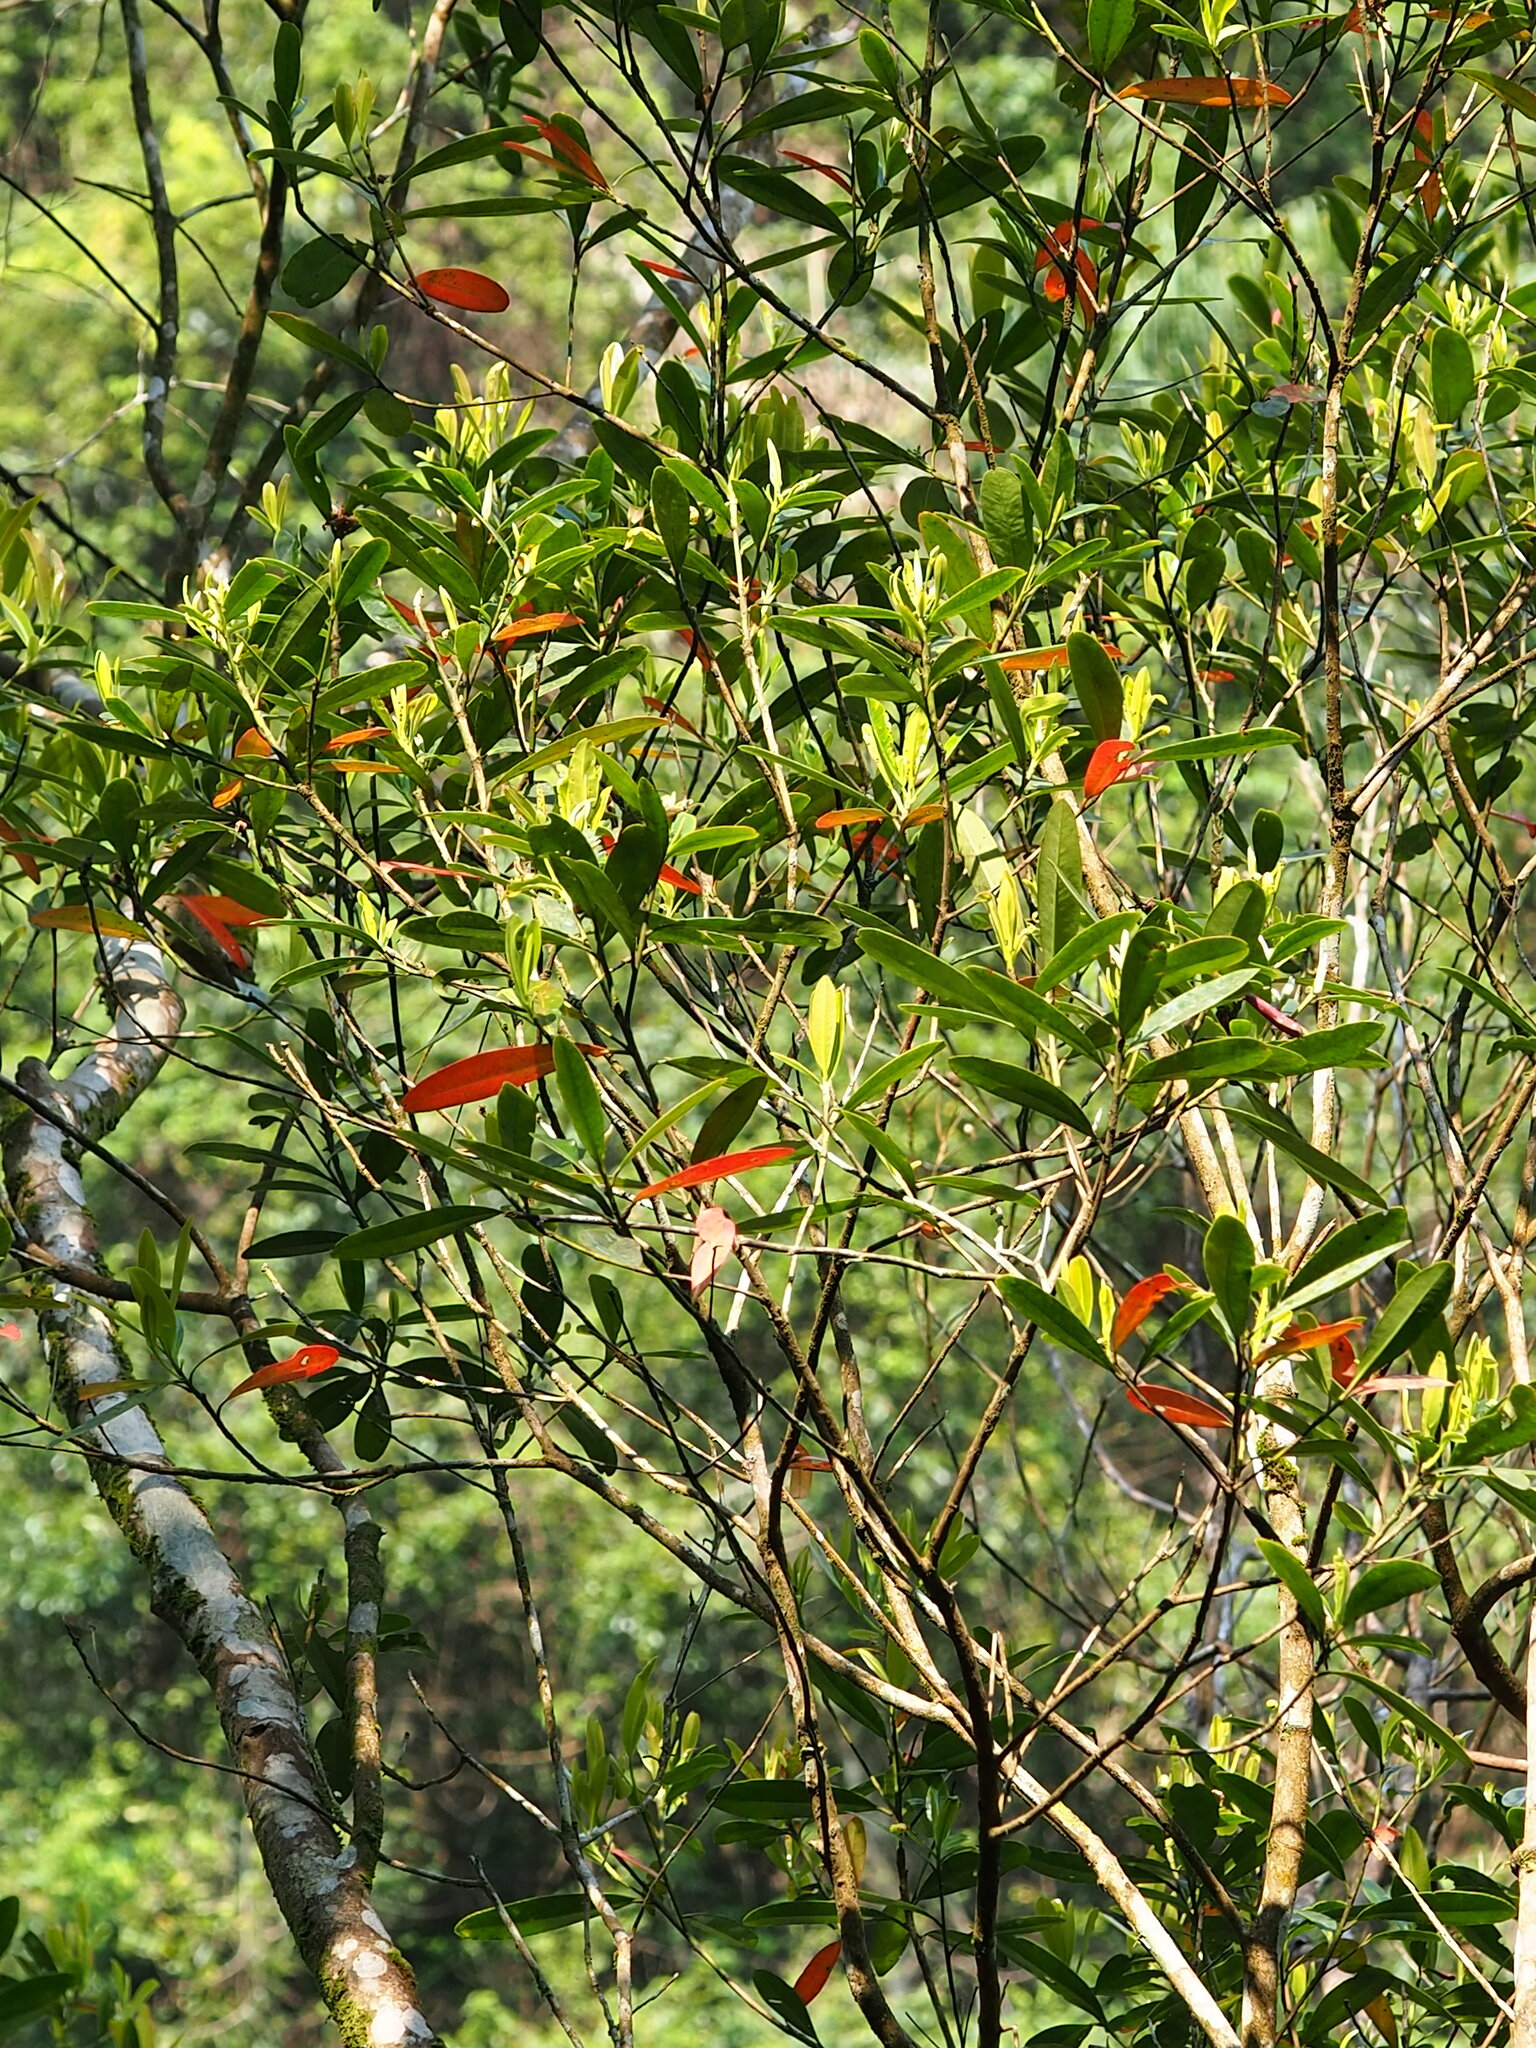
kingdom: Plantae
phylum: Tracheophyta
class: Magnoliopsida
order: Oxalidales
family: Elaeocarpaceae
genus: Elaeocarpus
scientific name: Elaeocarpus decipiens
